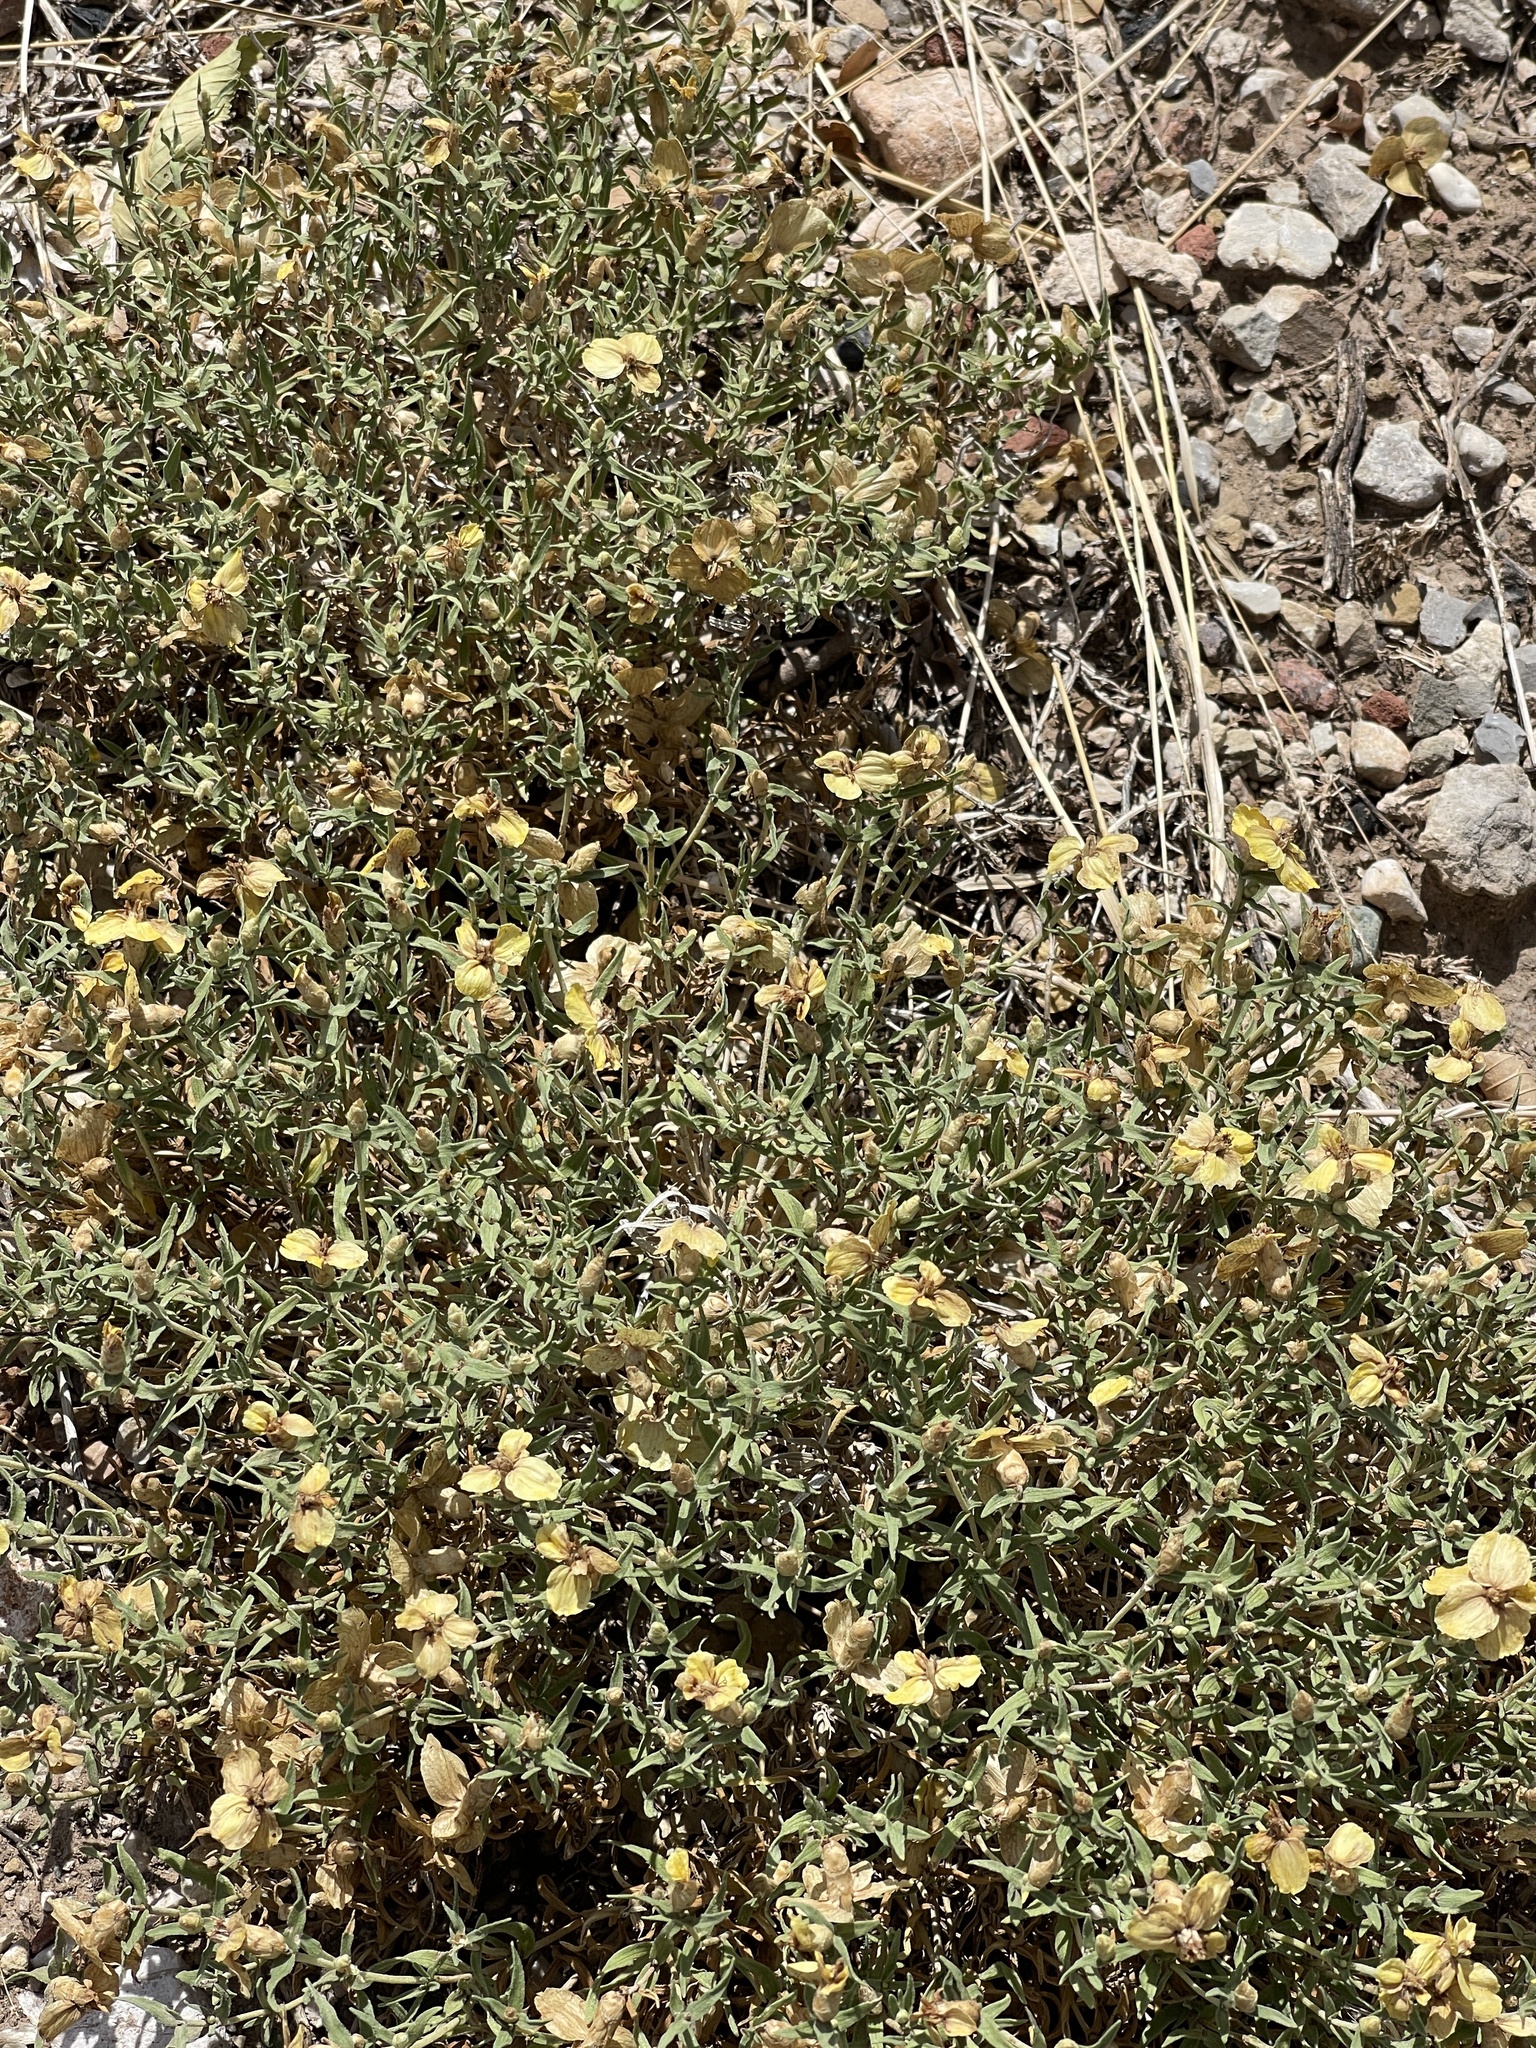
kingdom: Plantae
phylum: Tracheophyta
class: Magnoliopsida
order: Asterales
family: Asteraceae
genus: Zinnia
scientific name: Zinnia grandiflora
